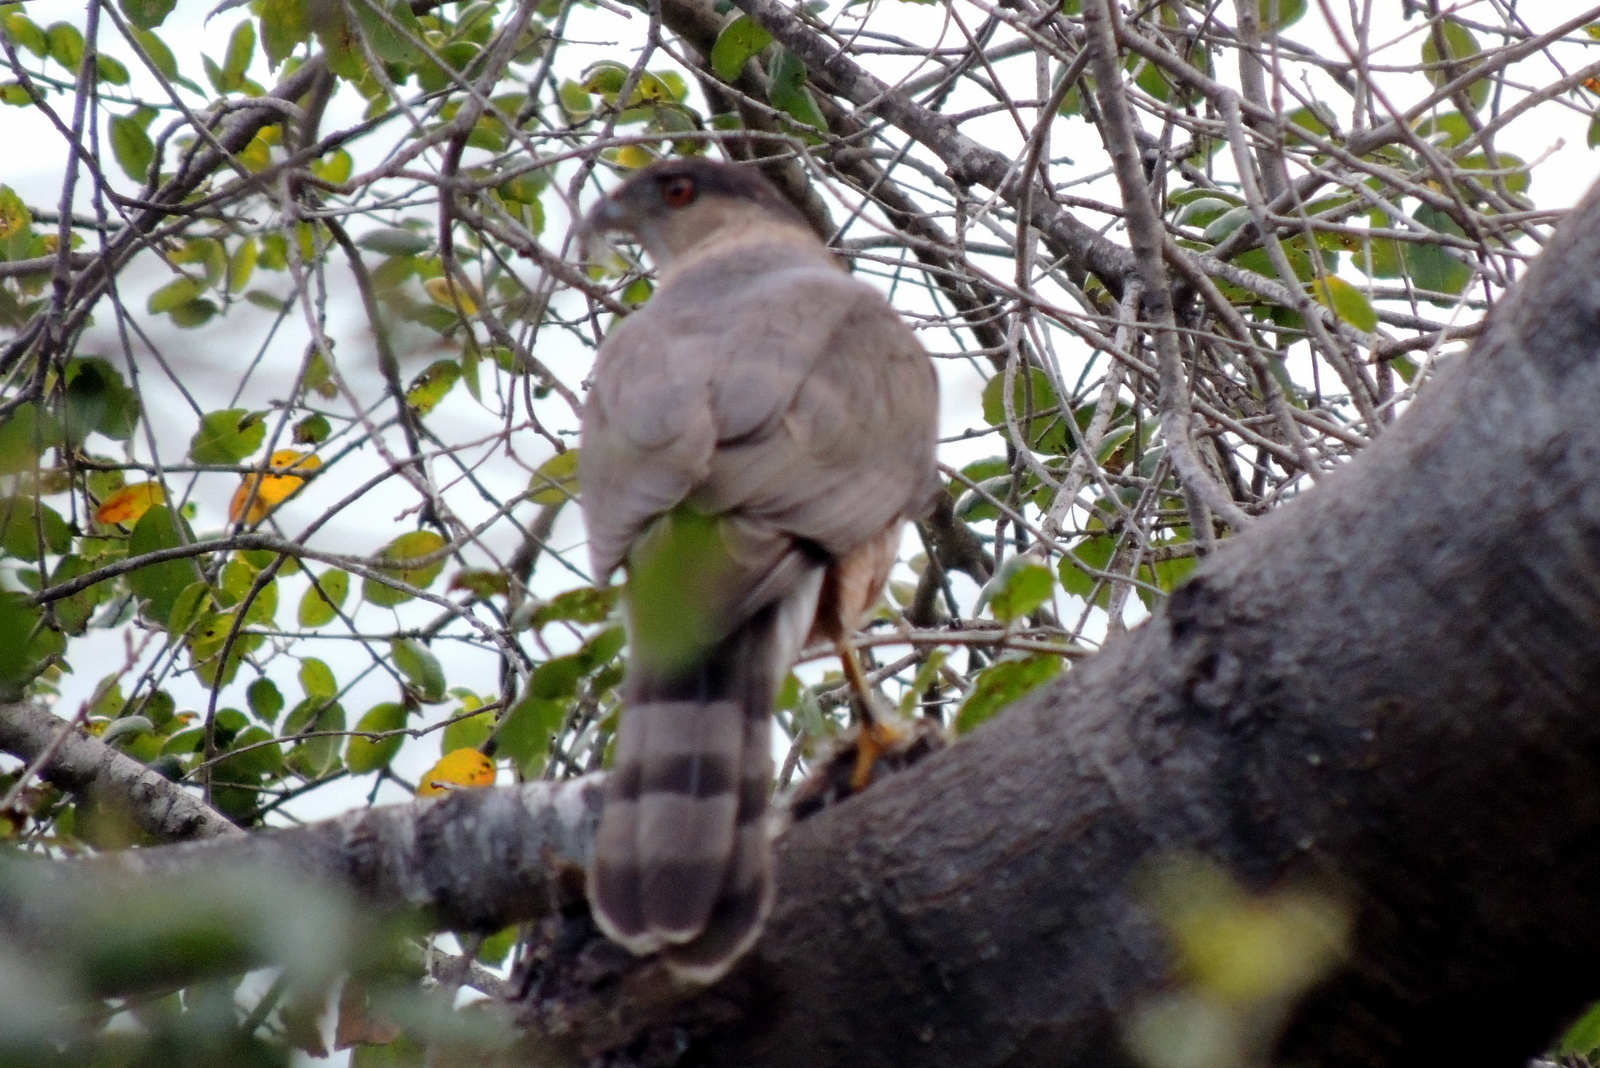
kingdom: Animalia
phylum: Chordata
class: Aves
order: Accipitriformes
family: Accipitridae
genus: Accipiter
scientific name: Accipiter cooperii
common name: Cooper's hawk
